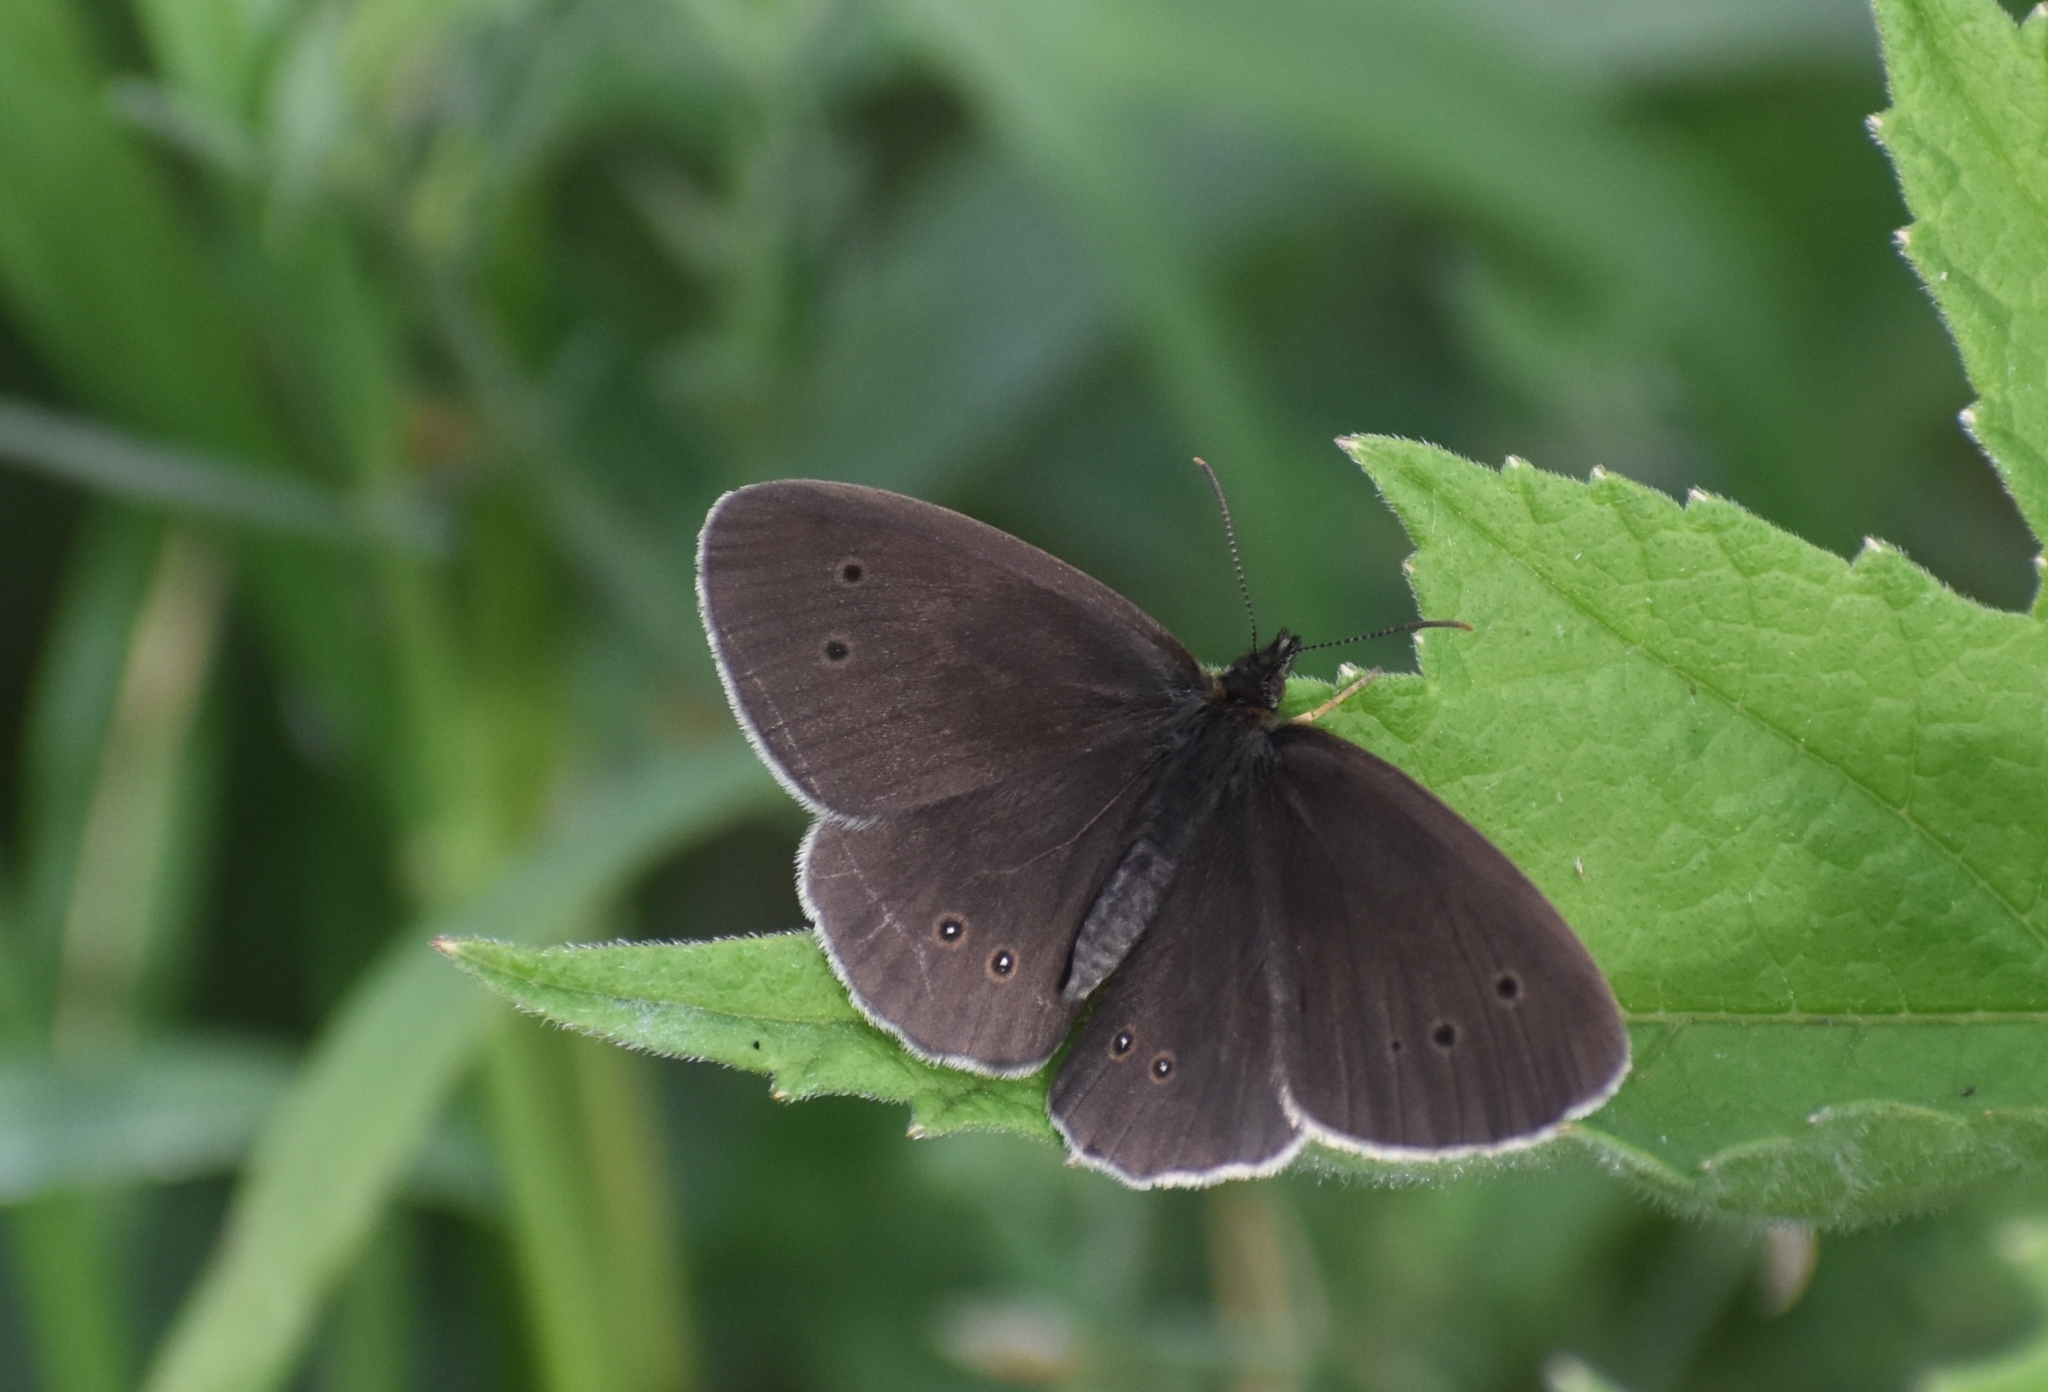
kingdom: Animalia
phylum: Arthropoda
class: Insecta
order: Lepidoptera
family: Nymphalidae
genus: Aphantopus
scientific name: Aphantopus hyperantus
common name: Ringlet
